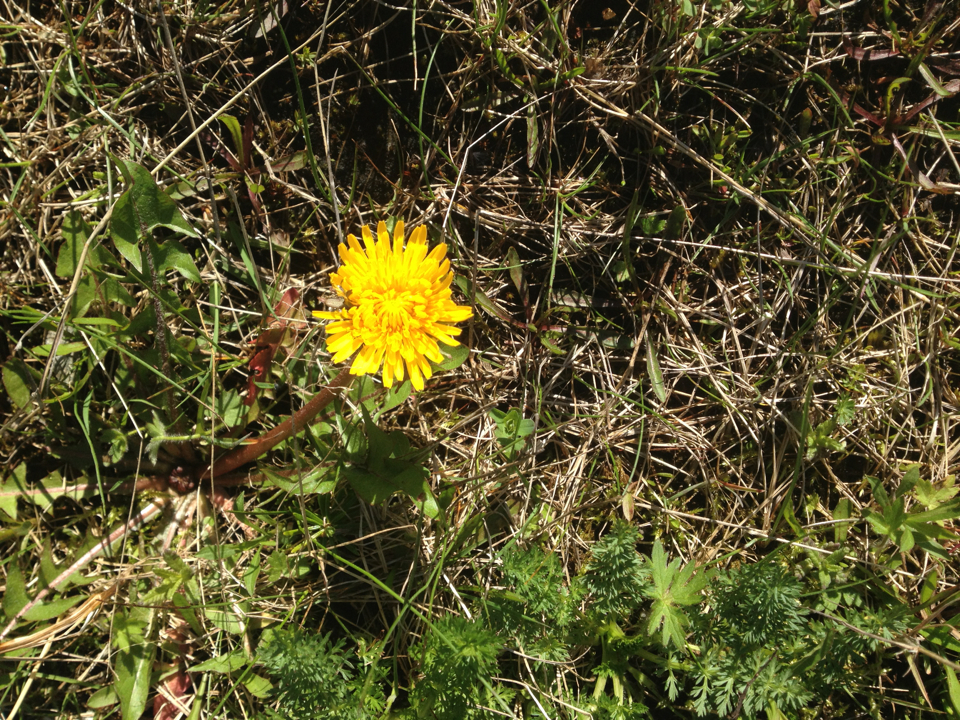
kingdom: Plantae
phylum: Tracheophyta
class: Magnoliopsida
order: Asterales
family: Asteraceae
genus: Taraxacum
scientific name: Taraxacum officinale
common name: Common dandelion
